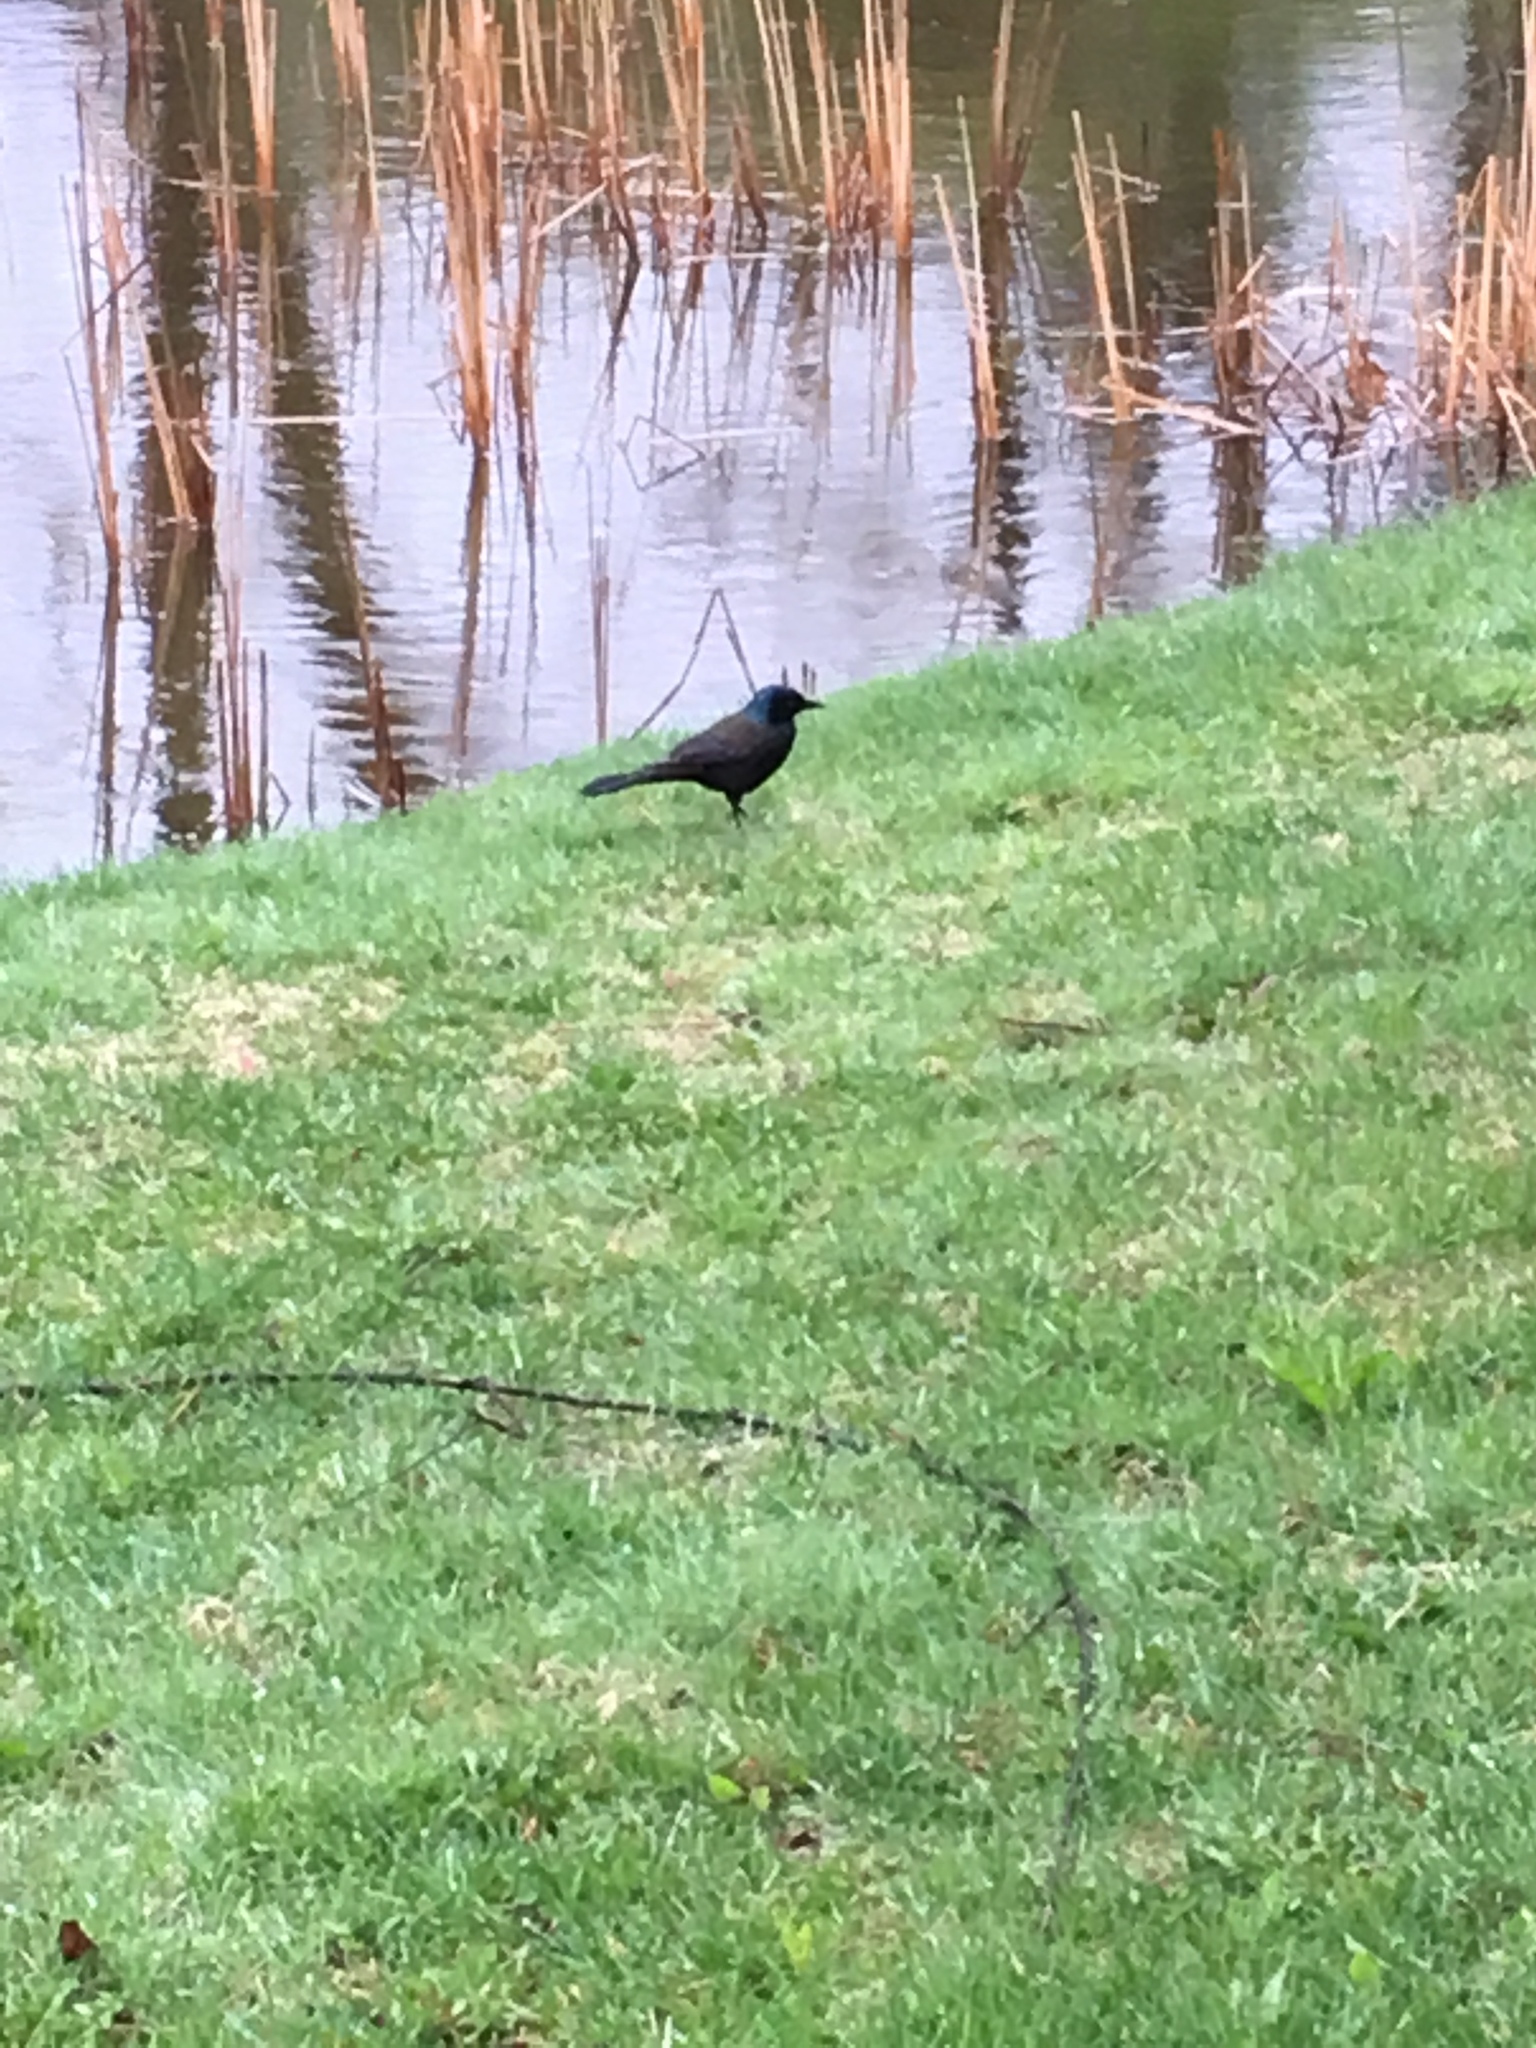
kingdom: Animalia
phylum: Chordata
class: Aves
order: Passeriformes
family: Icteridae
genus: Quiscalus
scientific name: Quiscalus quiscula
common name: Common grackle
